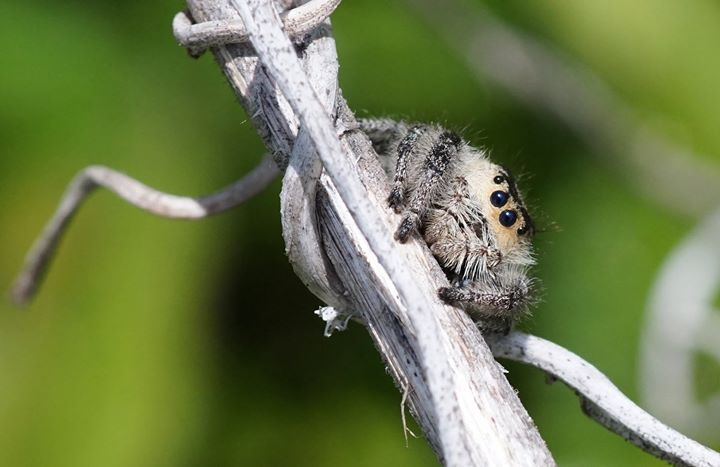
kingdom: Animalia
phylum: Arthropoda
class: Arachnida
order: Araneae
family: Salticidae
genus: Phidippus
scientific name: Phidippus regius
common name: Regal jumper
